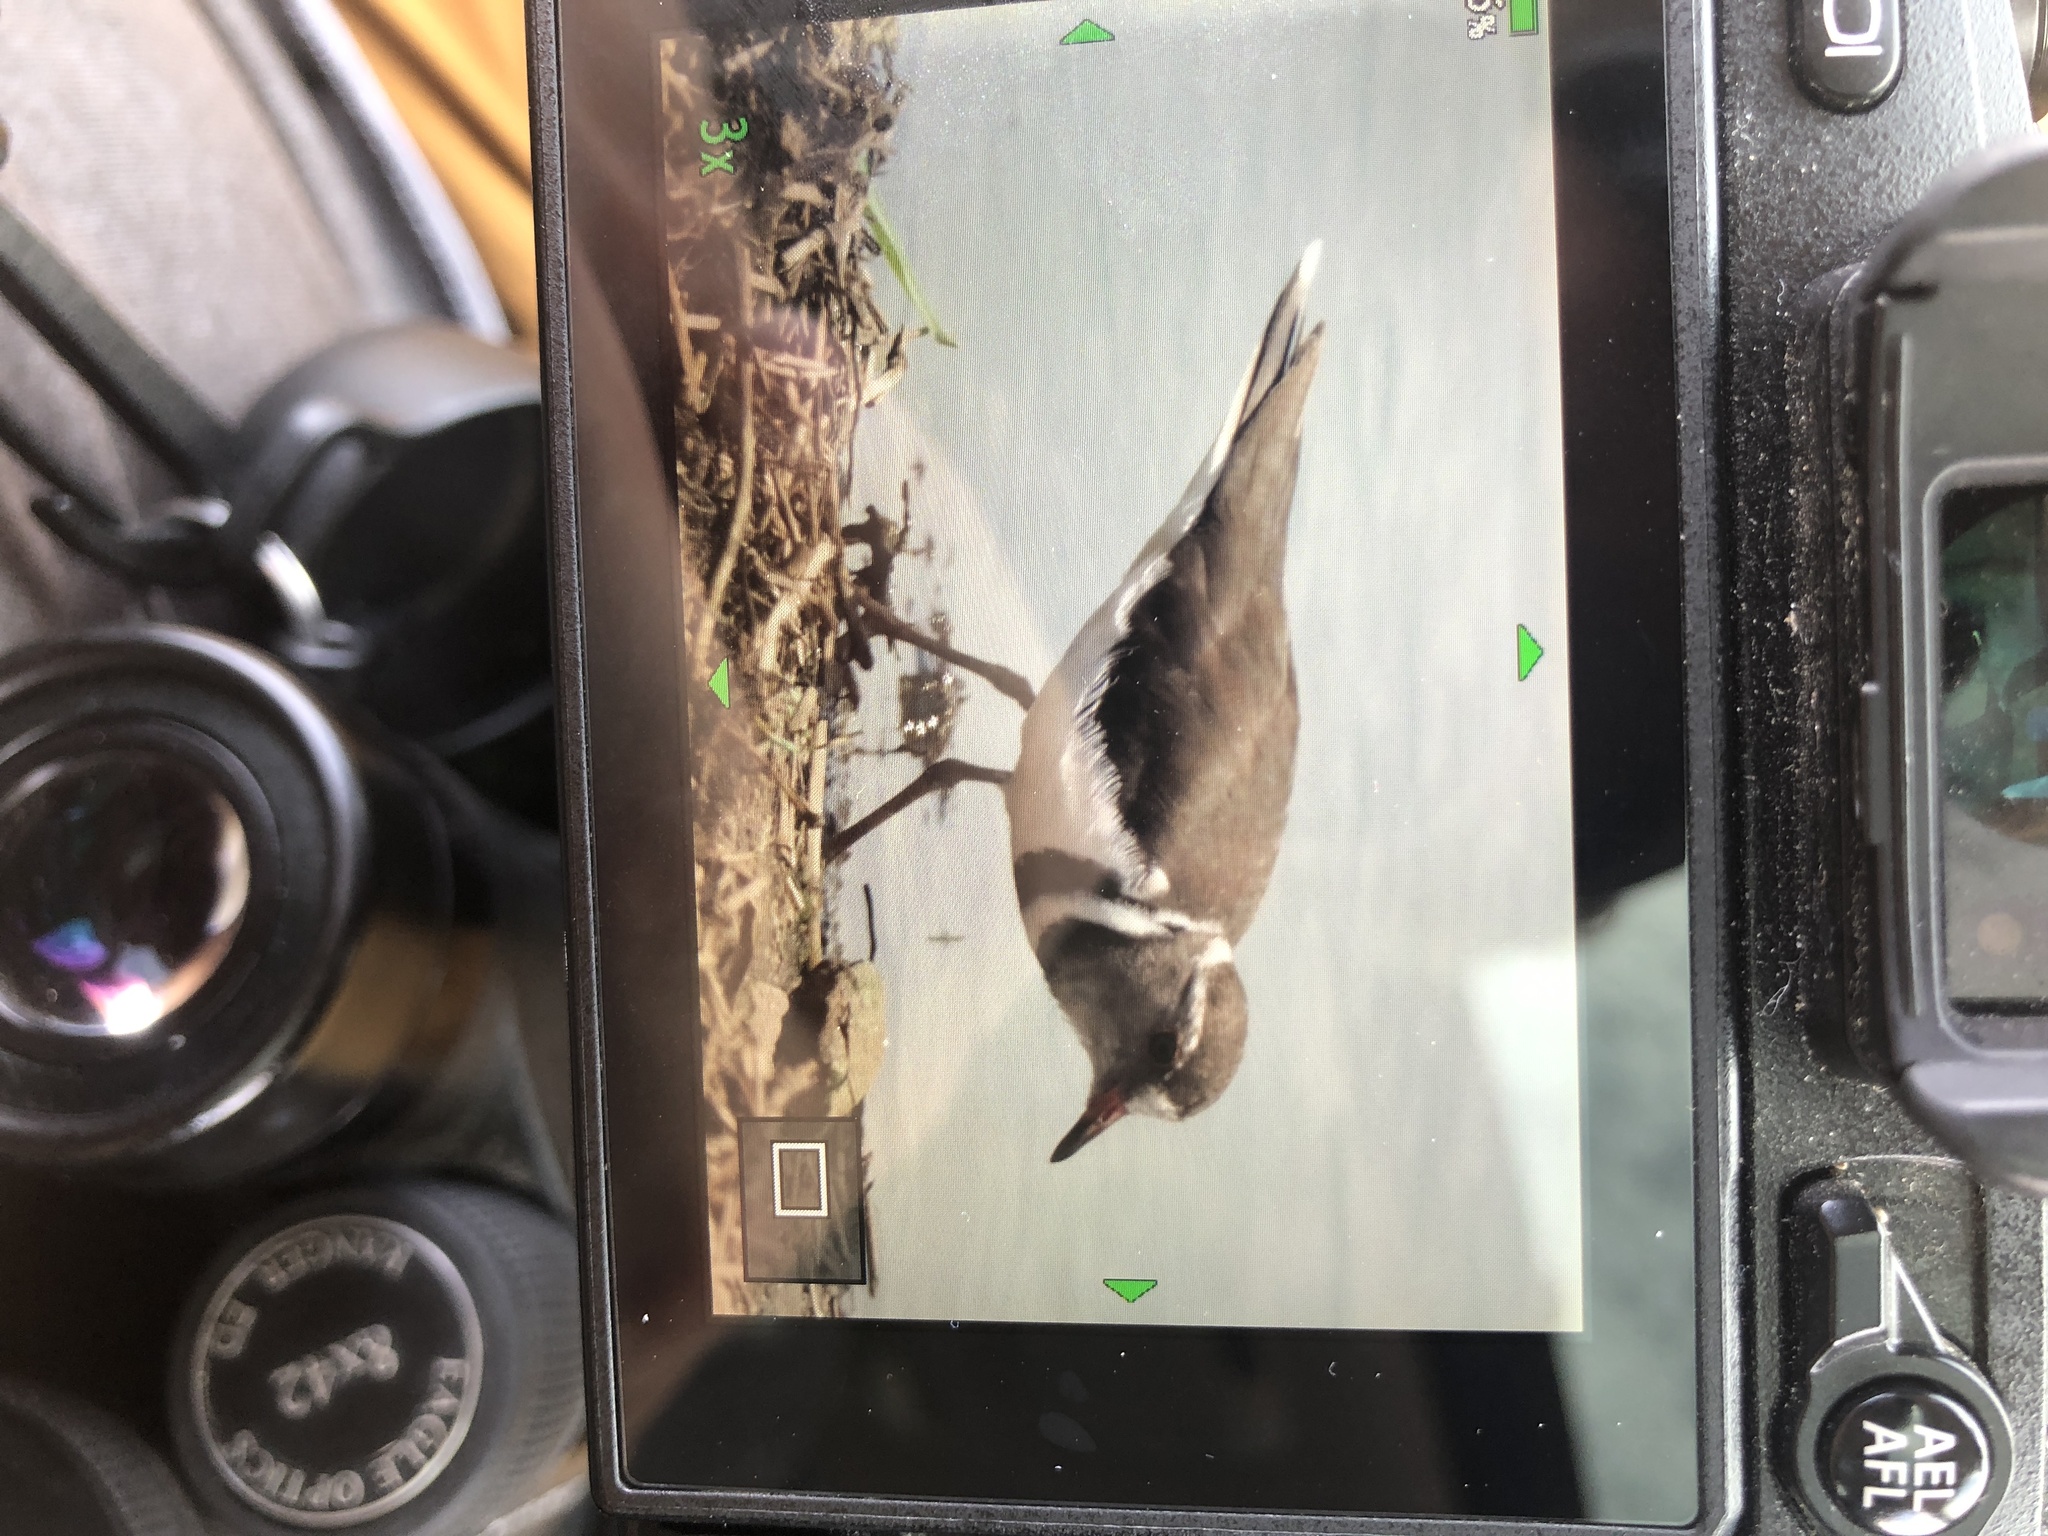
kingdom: Animalia
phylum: Chordata
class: Aves
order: Charadriiformes
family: Charadriidae
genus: Charadrius
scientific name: Charadrius tricollaris
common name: Three-banded plover
